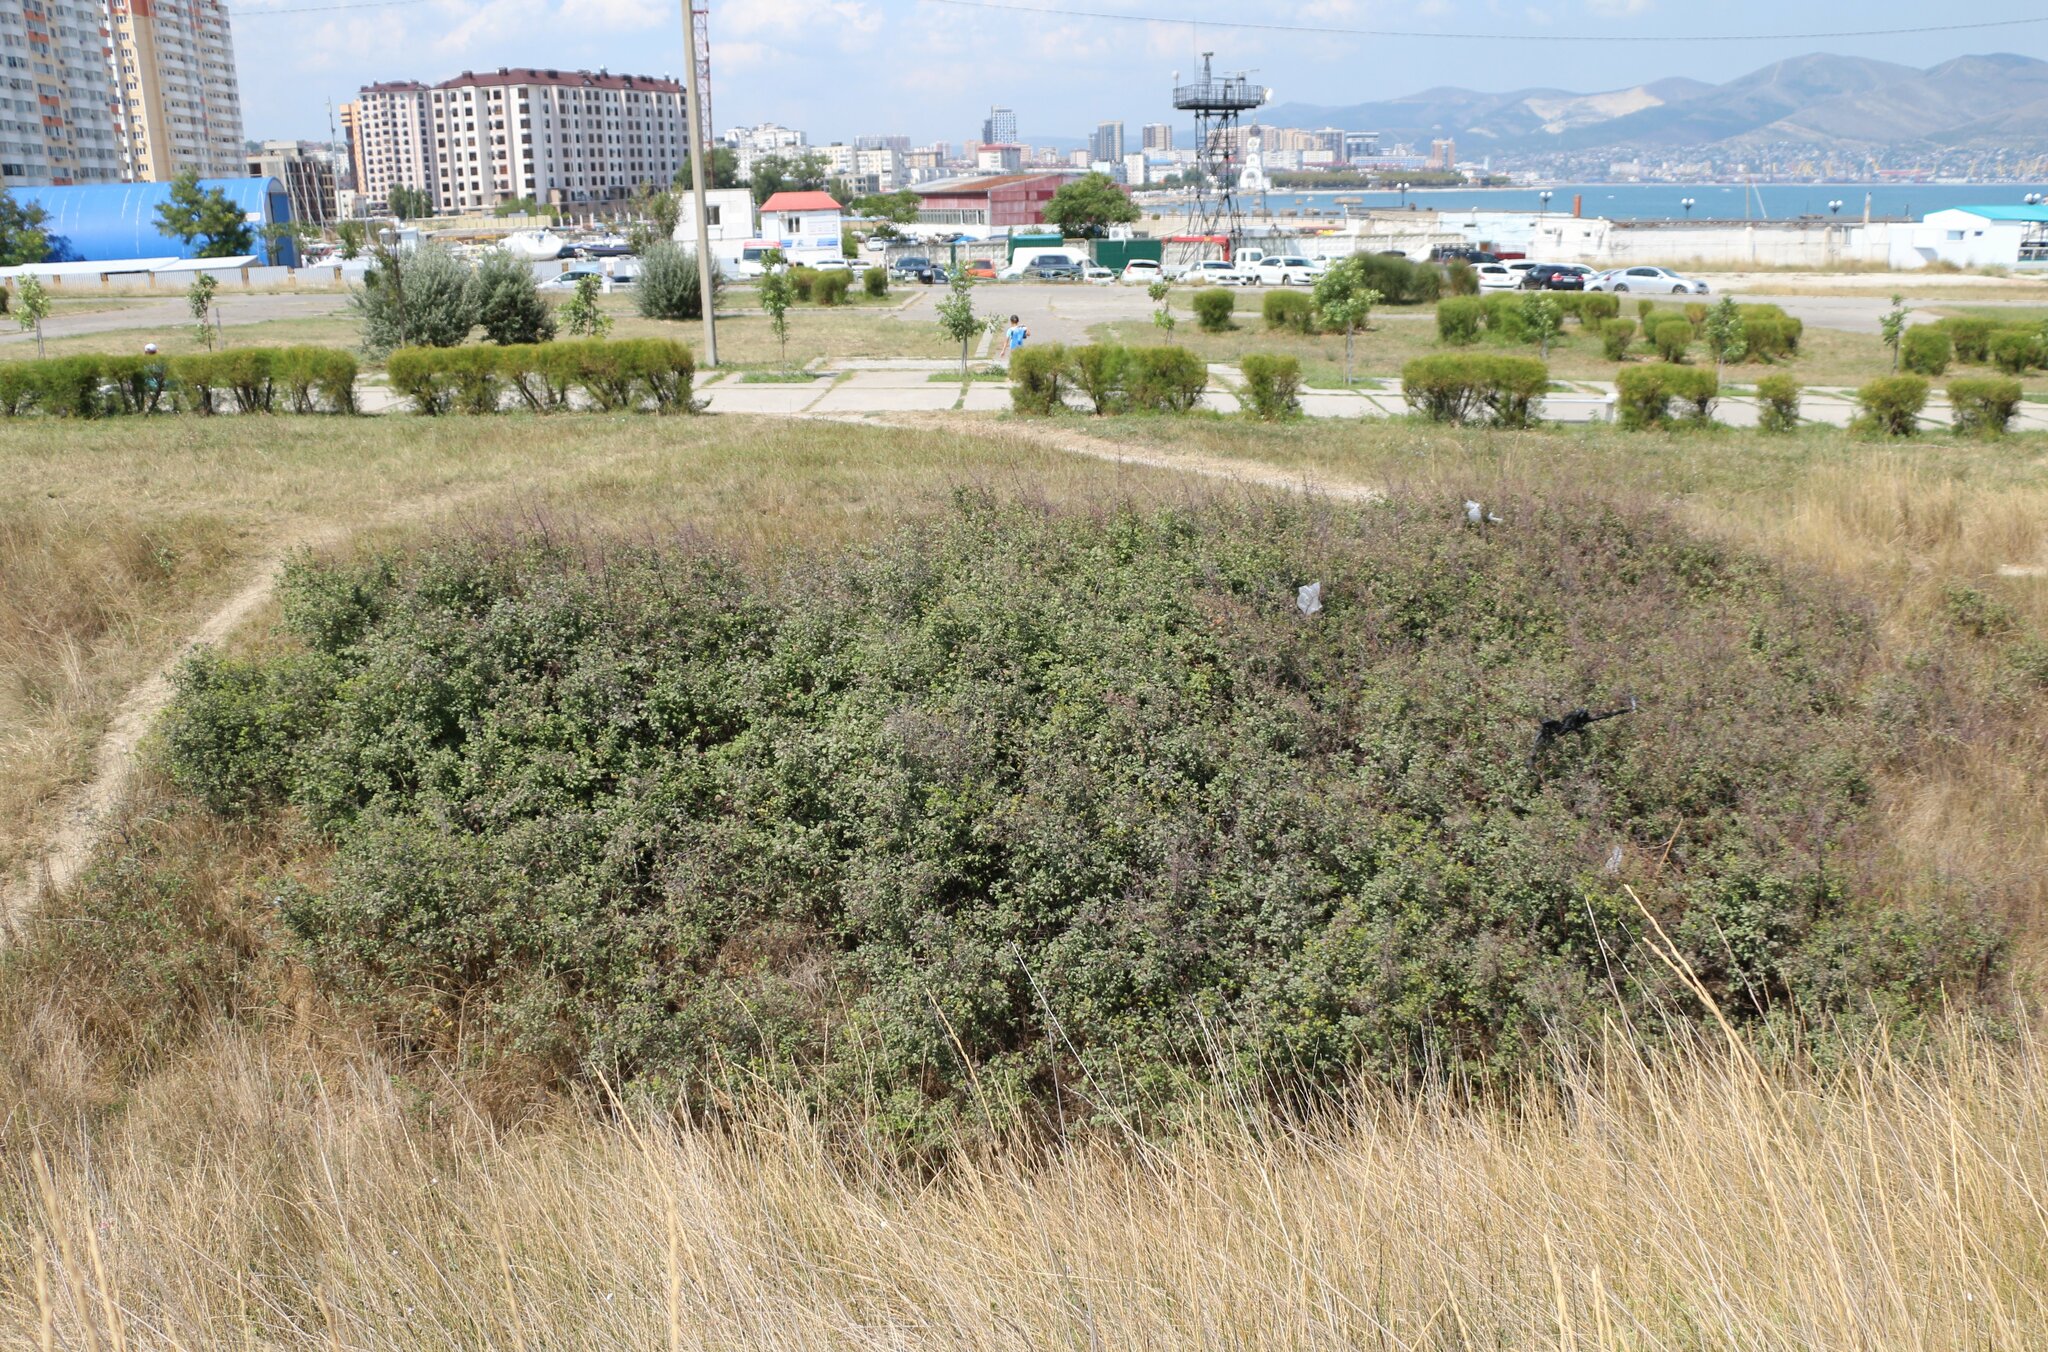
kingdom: Plantae
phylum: Tracheophyta
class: Magnoliopsida
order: Rosales
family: Rosaceae
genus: Prunus
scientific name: Prunus spinosa
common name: Blackthorn
